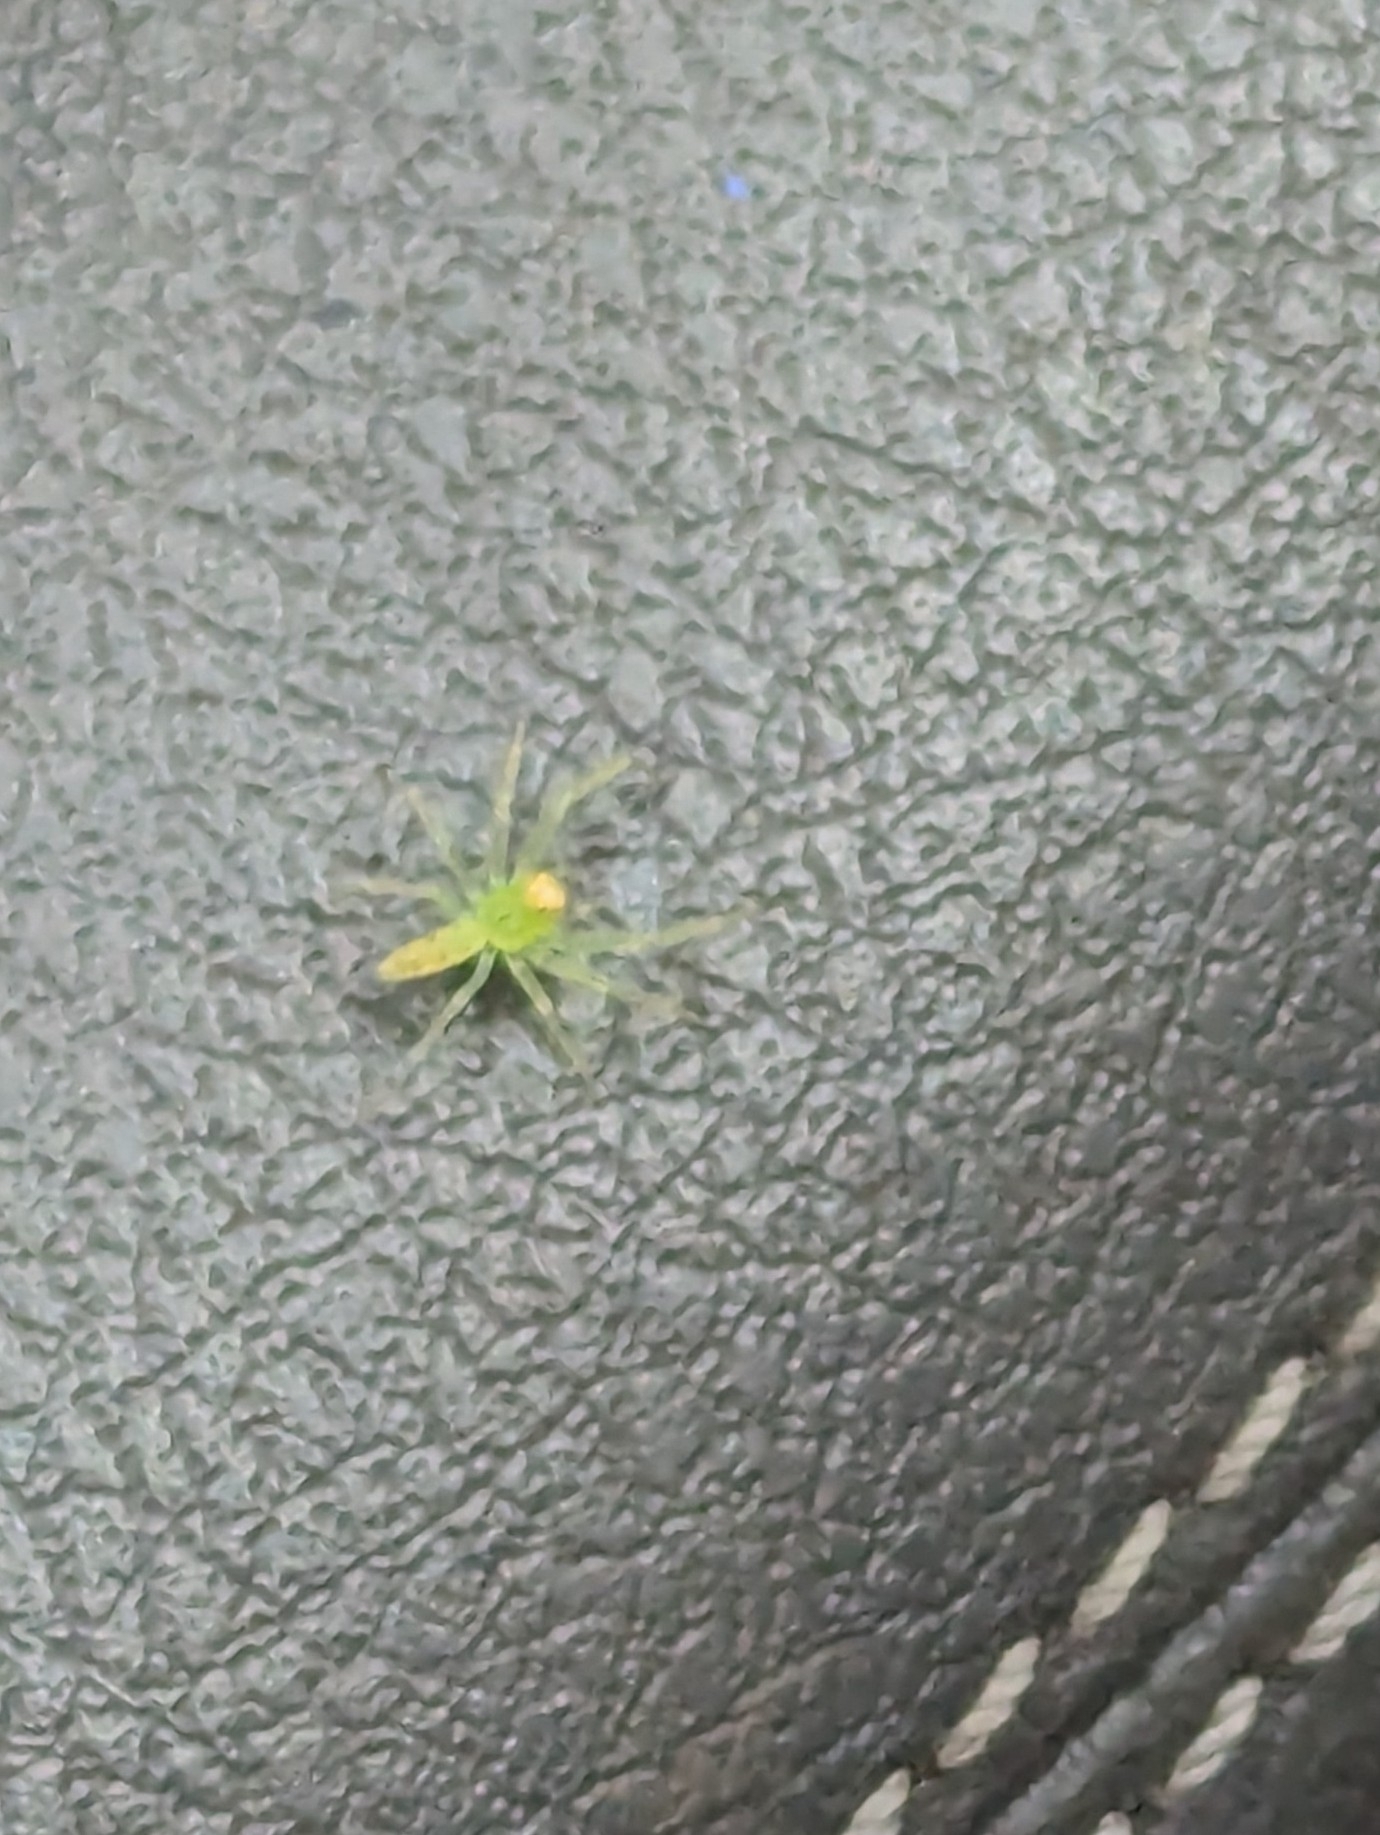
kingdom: Animalia
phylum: Arthropoda
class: Arachnida
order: Araneae
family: Salticidae
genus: Lyssomanes
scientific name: Lyssomanes viridis
